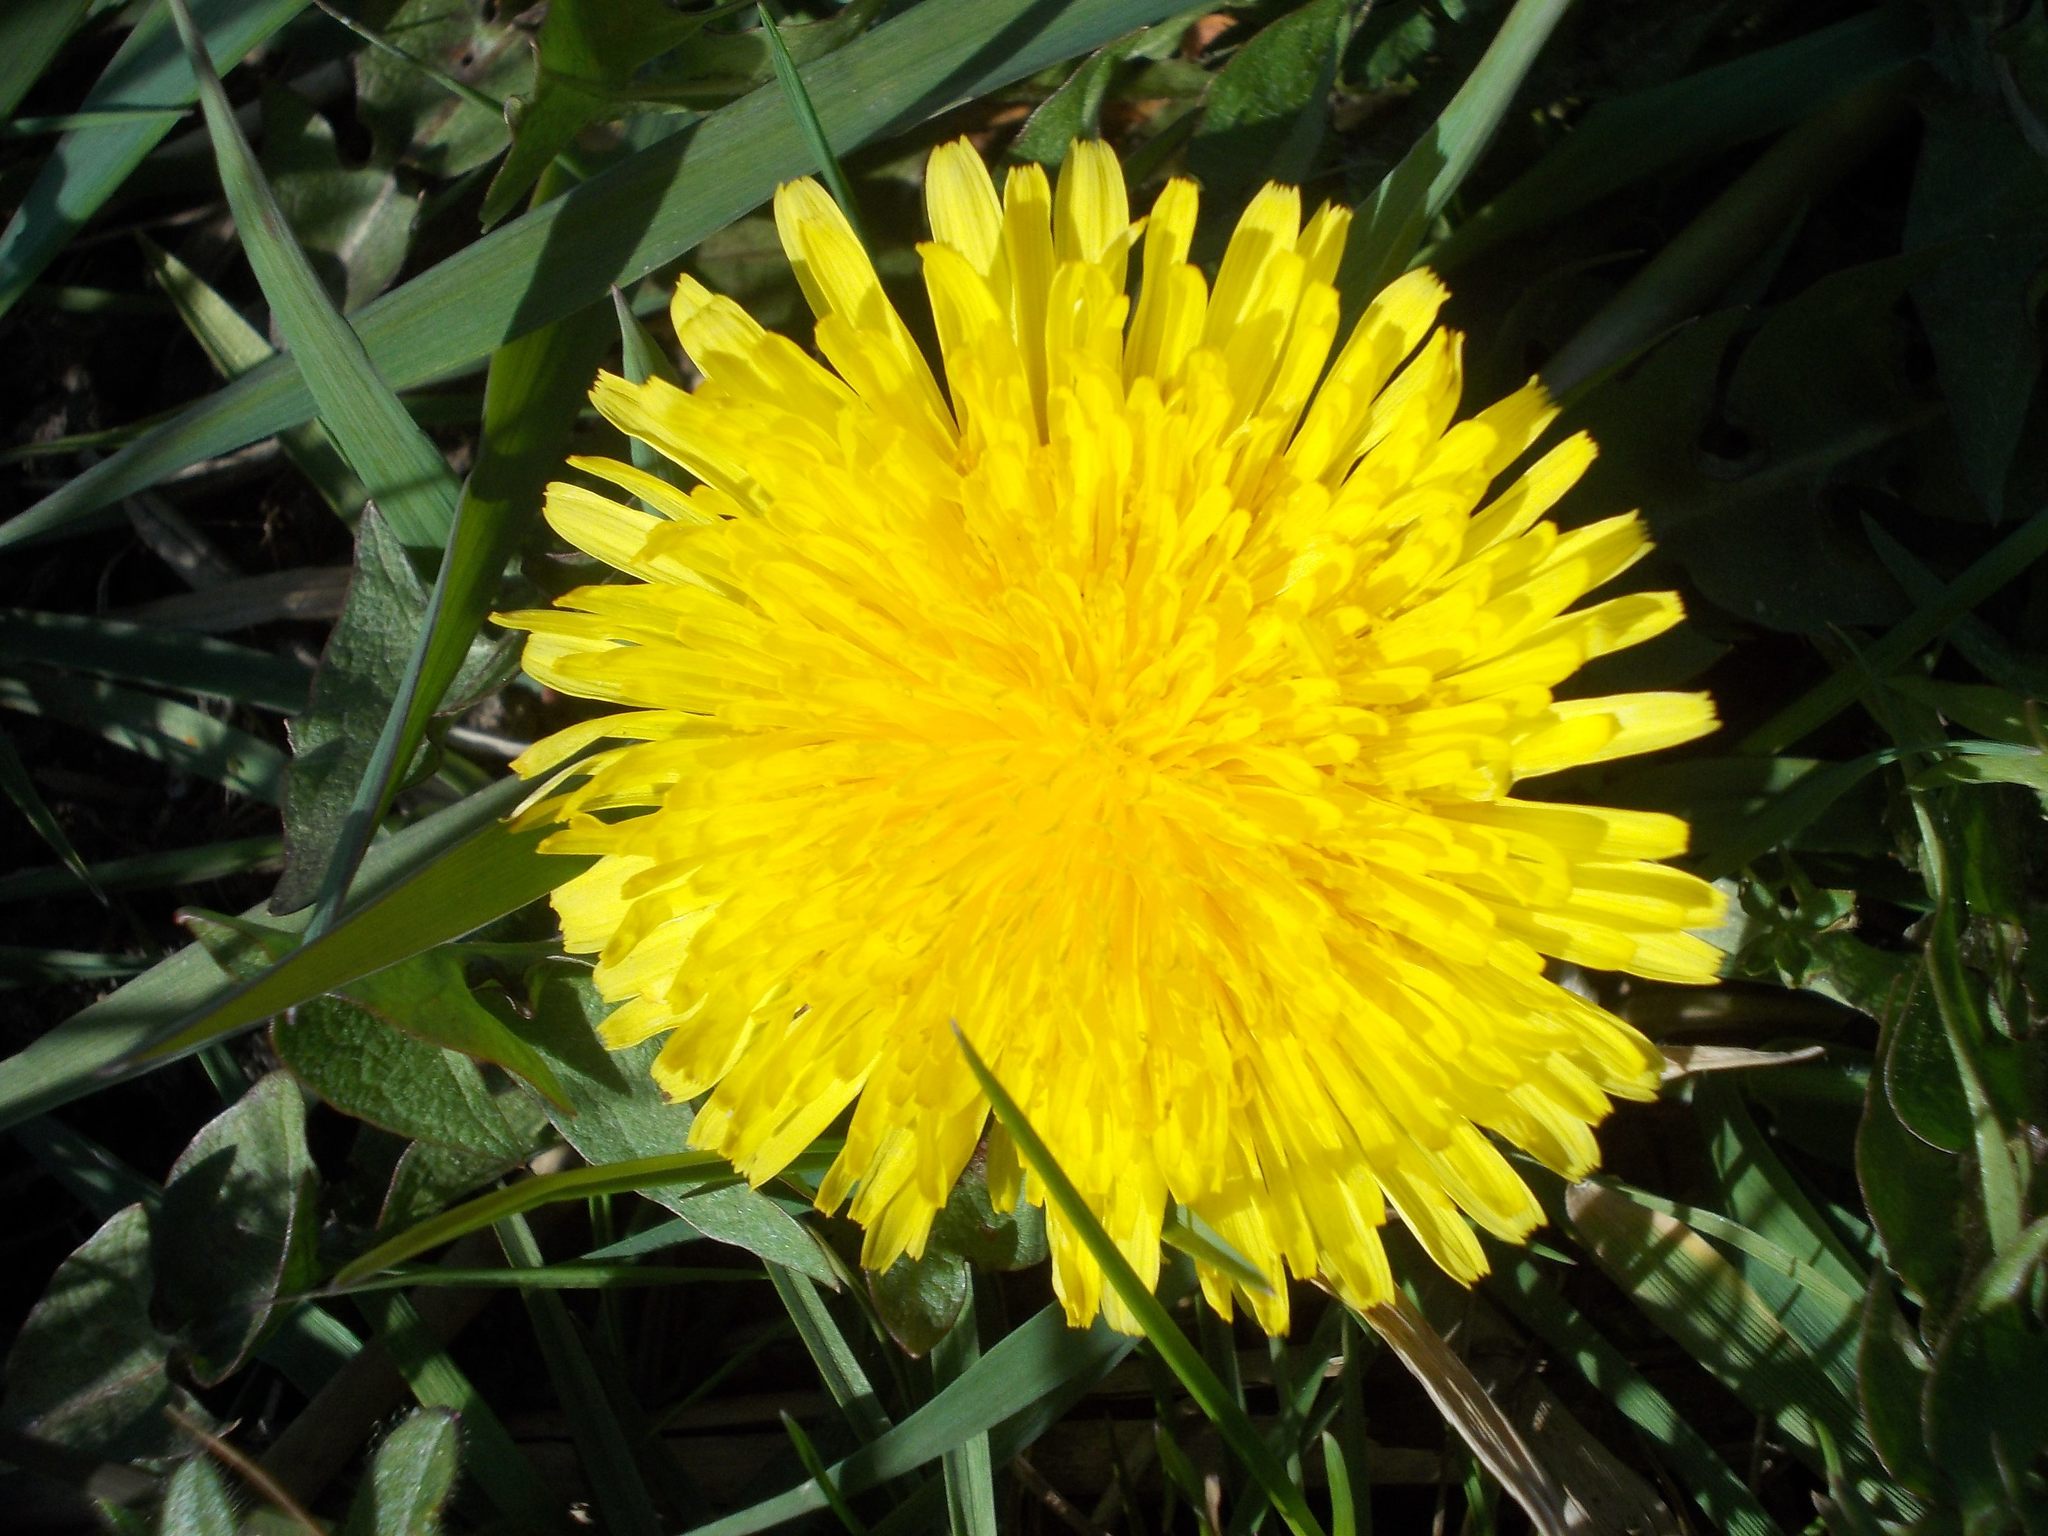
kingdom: Plantae
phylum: Tracheophyta
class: Magnoliopsida
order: Asterales
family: Asteraceae
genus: Taraxacum
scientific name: Taraxacum officinale
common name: Common dandelion
